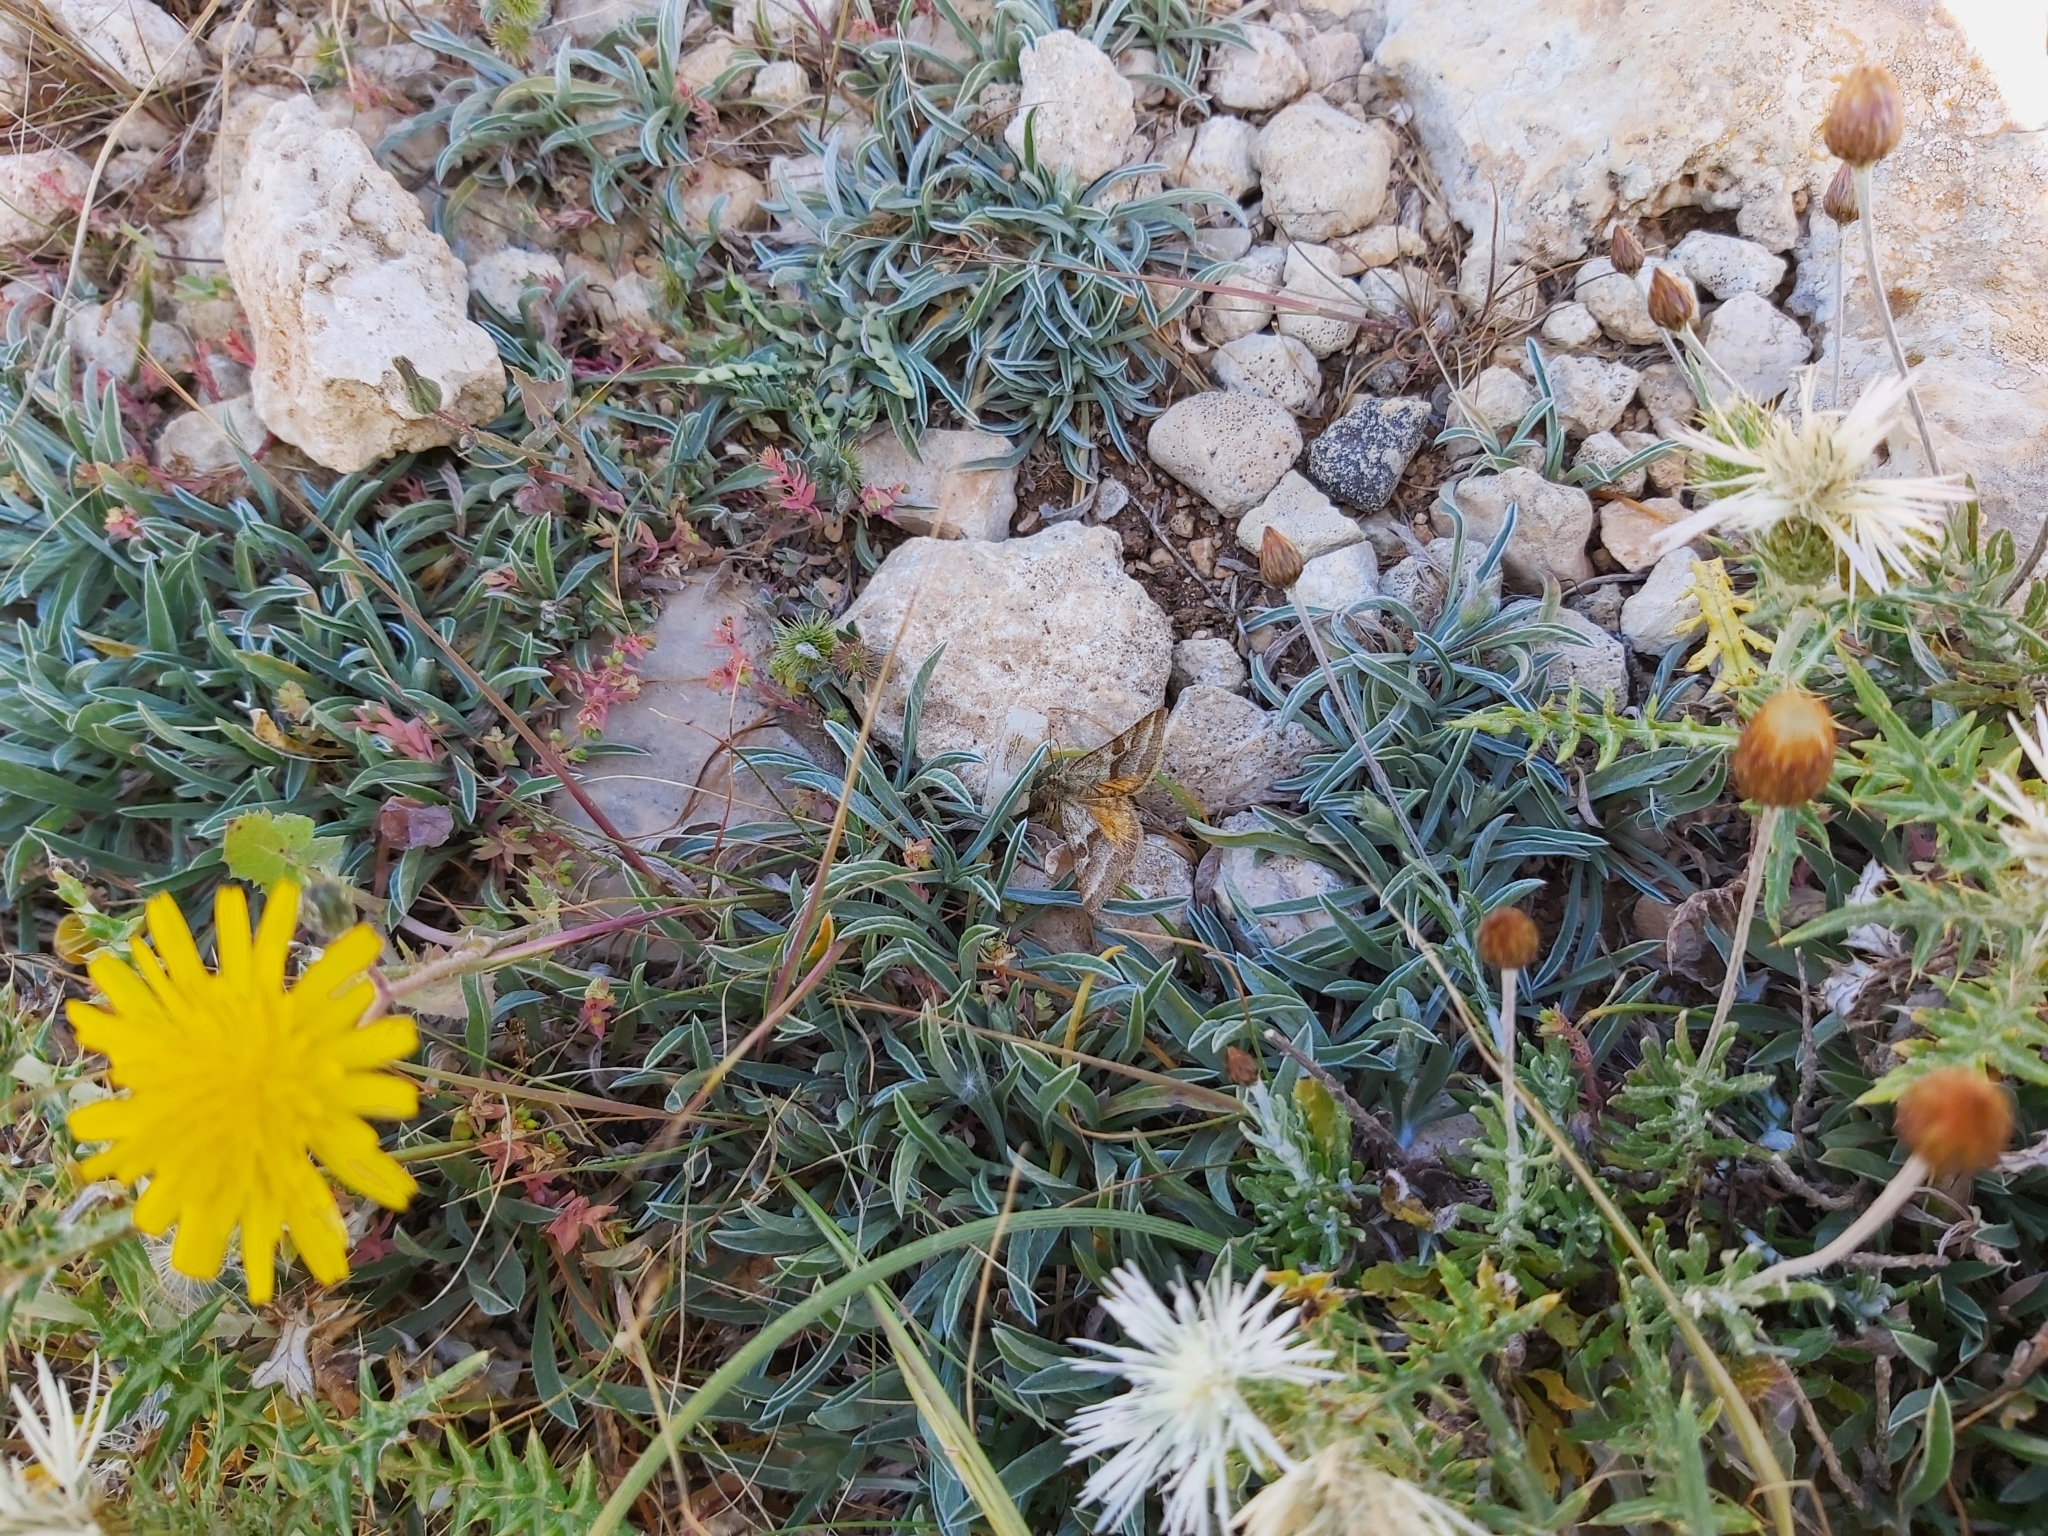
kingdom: Animalia
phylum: Arthropoda
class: Insecta
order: Lepidoptera
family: Noctuidae
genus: Synthymia
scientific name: Synthymia fixa
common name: Goldwing
